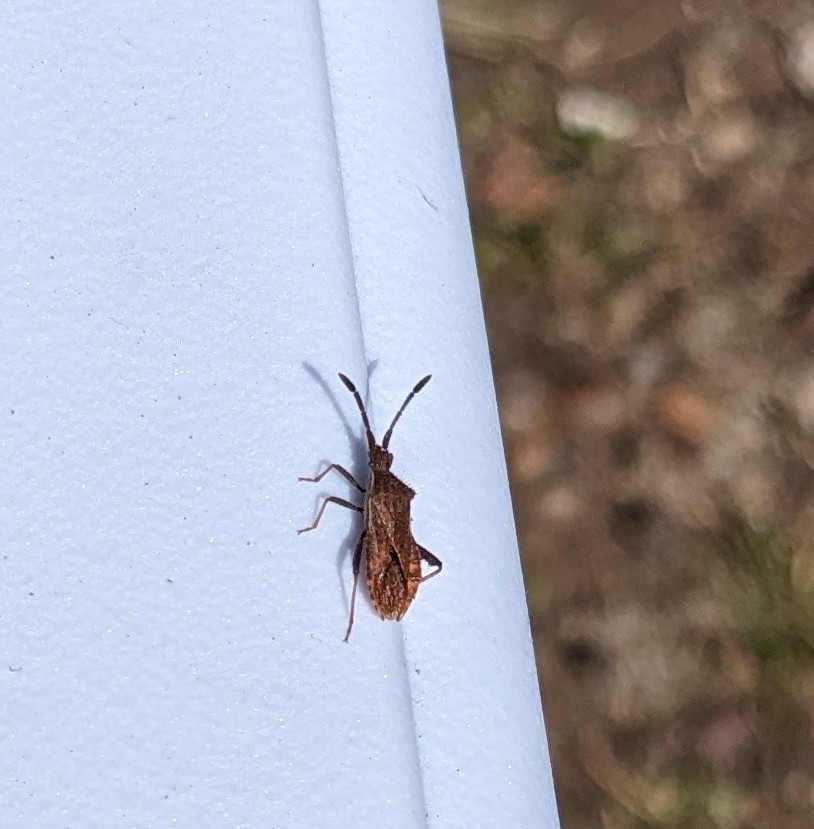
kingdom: Animalia
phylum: Arthropoda
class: Insecta
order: Hemiptera
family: Coreidae
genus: Coriomeris
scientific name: Coriomeris denticulatus
